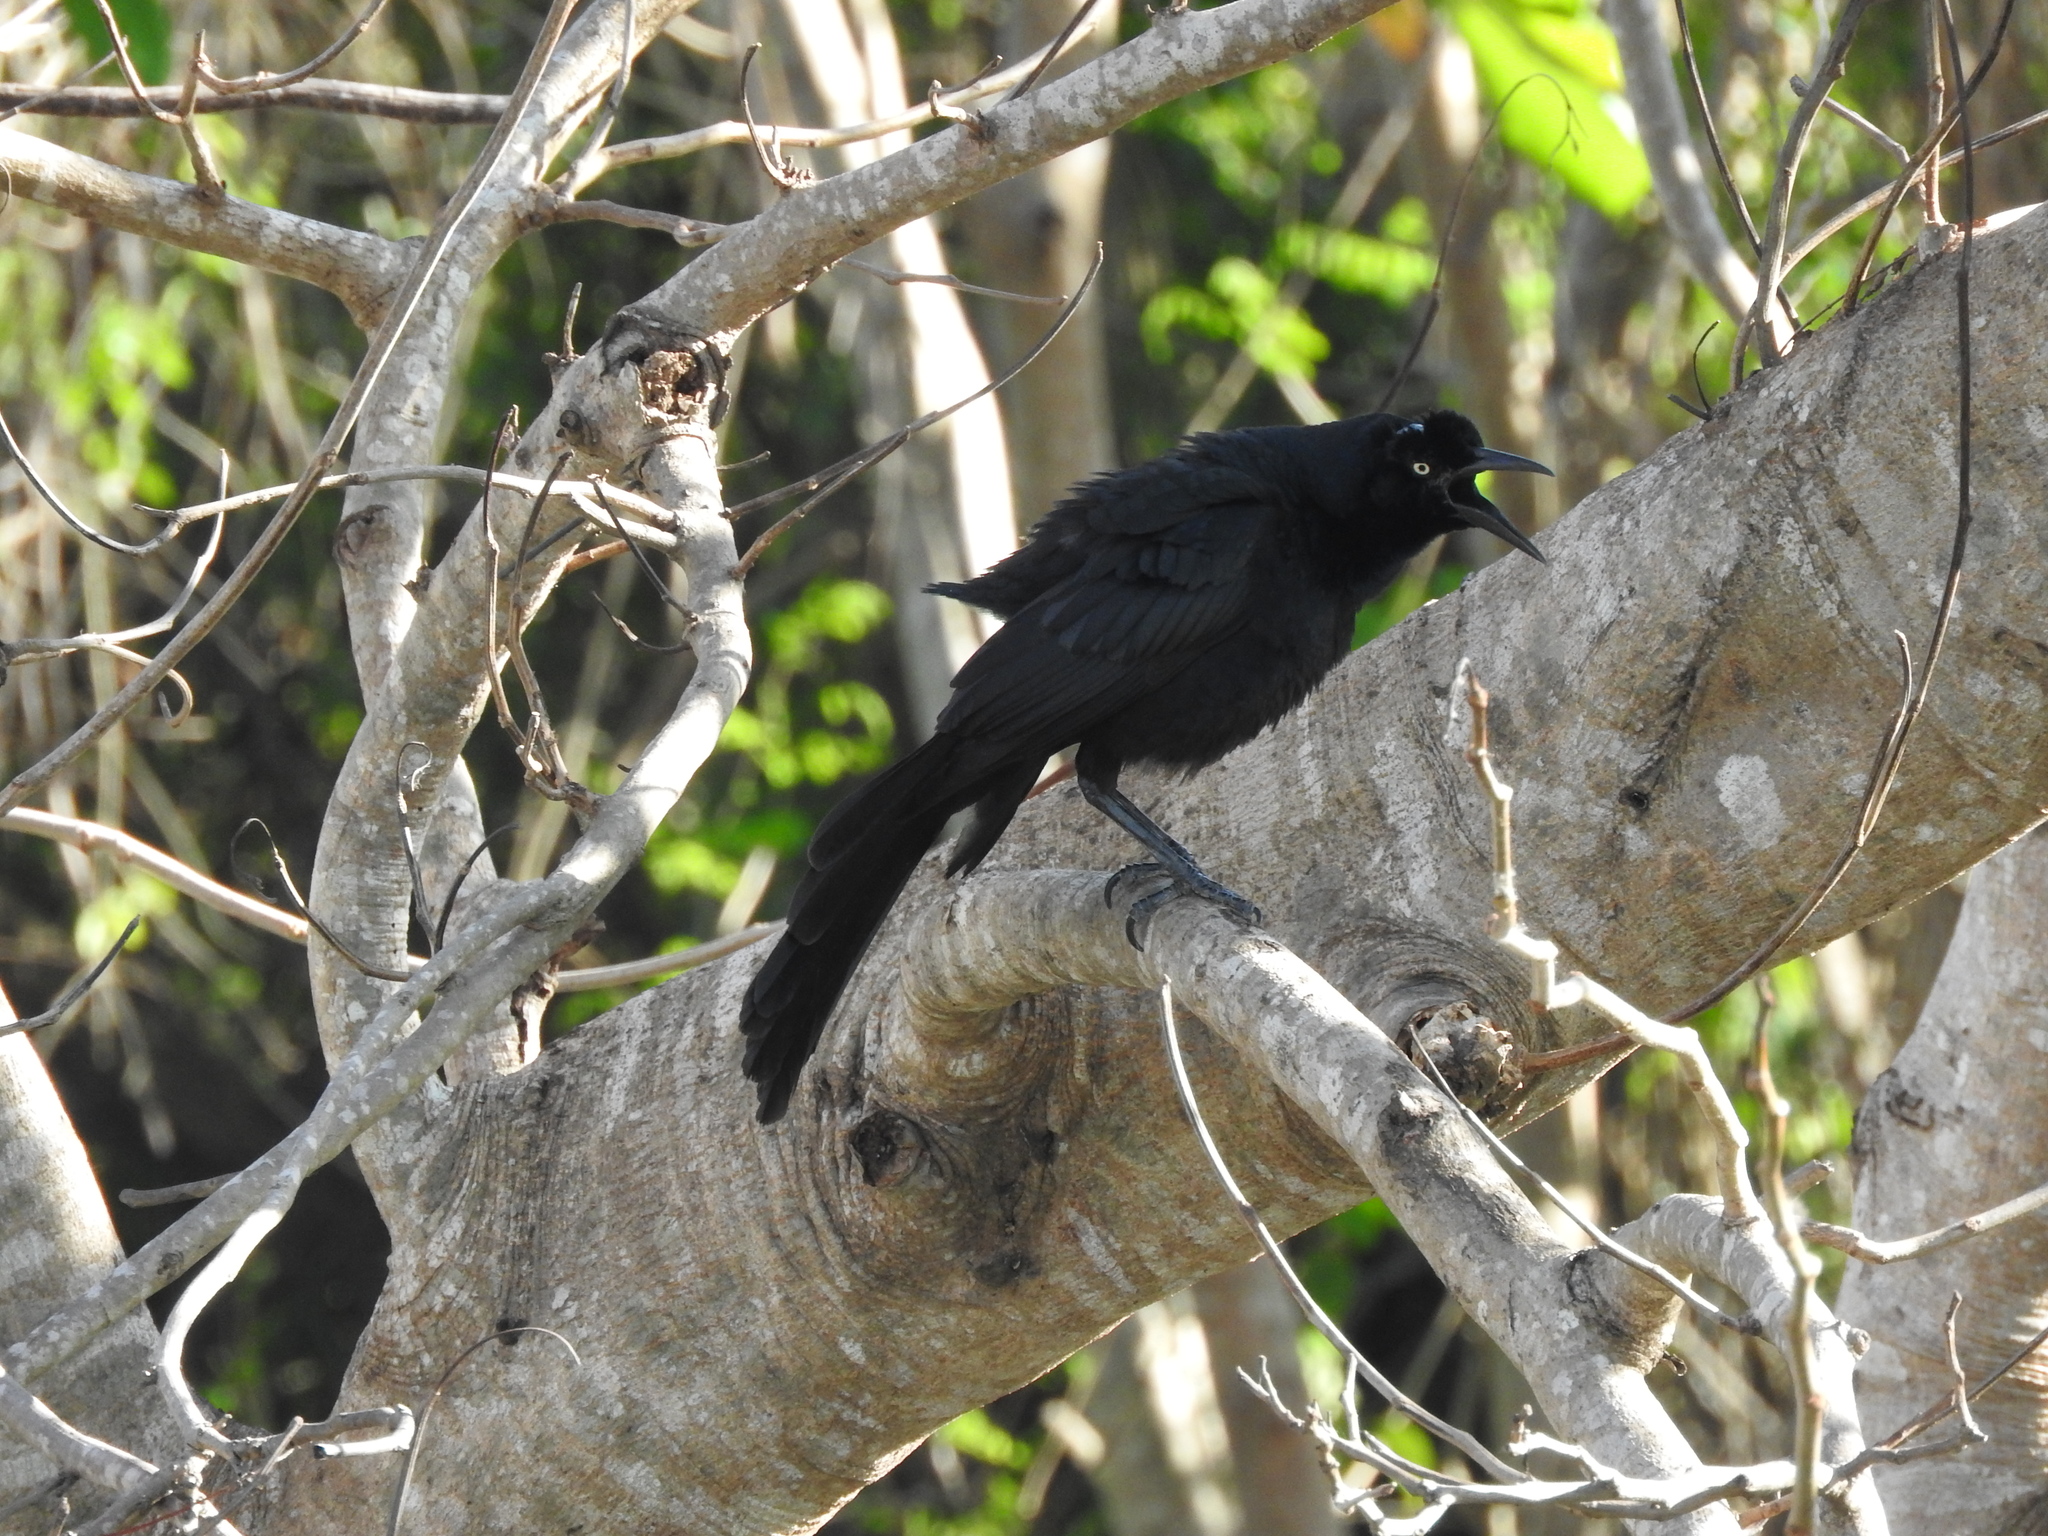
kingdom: Animalia
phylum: Chordata
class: Aves
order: Passeriformes
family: Icteridae
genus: Quiscalus
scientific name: Quiscalus mexicanus
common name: Great-tailed grackle
